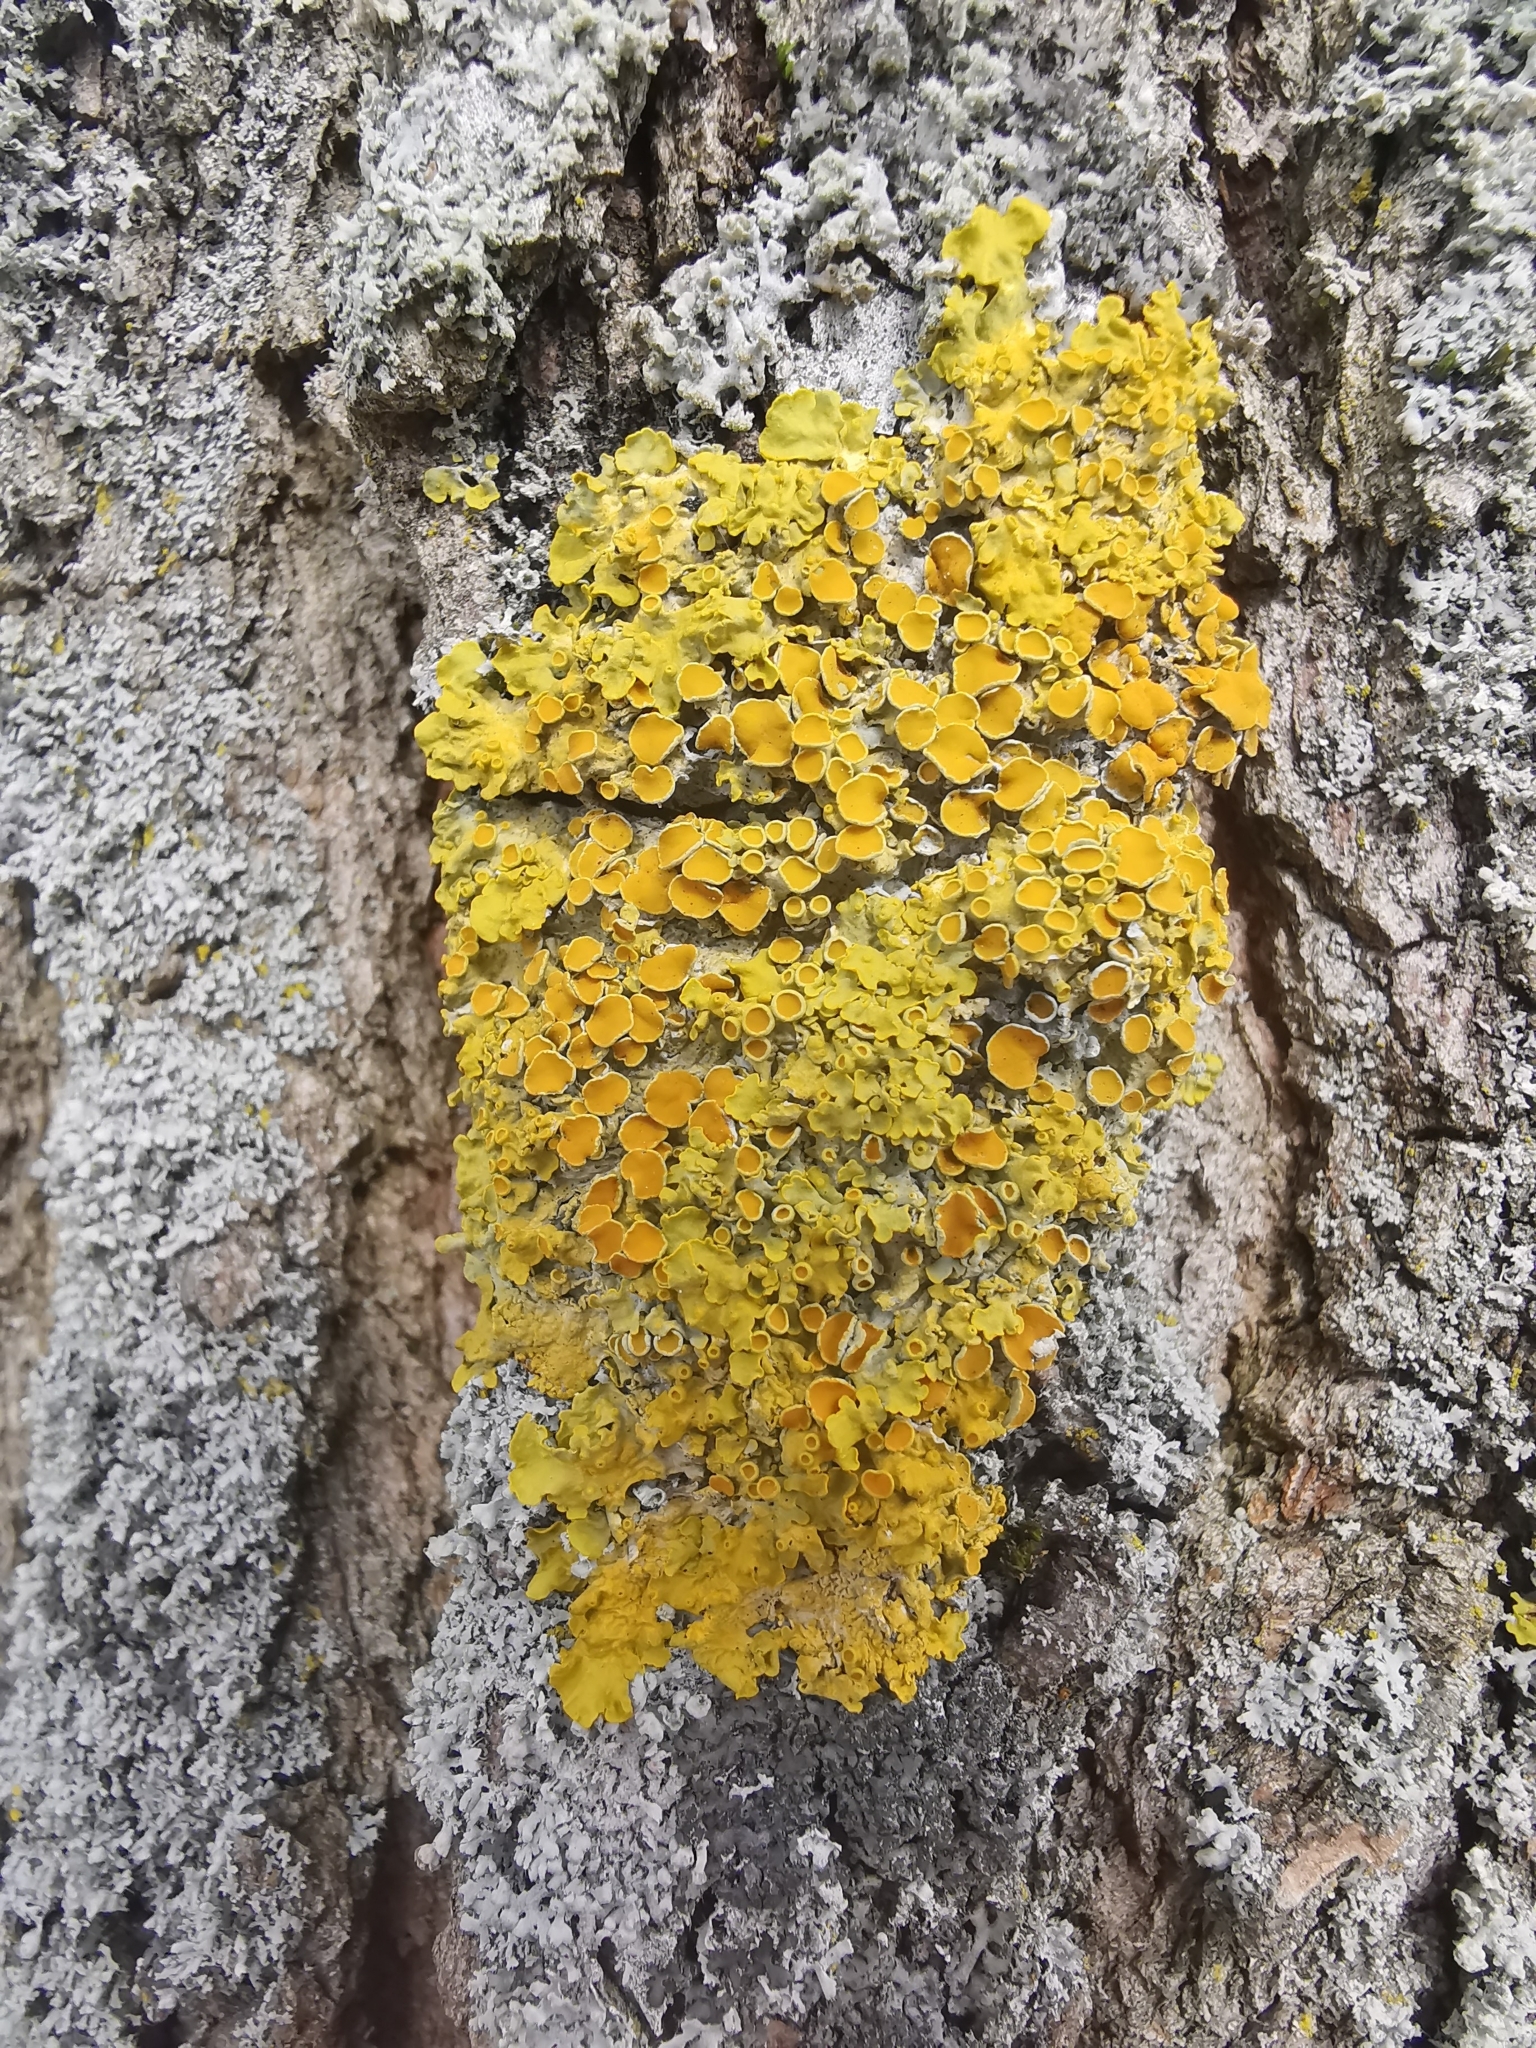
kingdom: Fungi
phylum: Ascomycota
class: Lecanoromycetes
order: Teloschistales
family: Teloschistaceae
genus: Xanthoria
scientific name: Xanthoria parietina
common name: Common orange lichen
